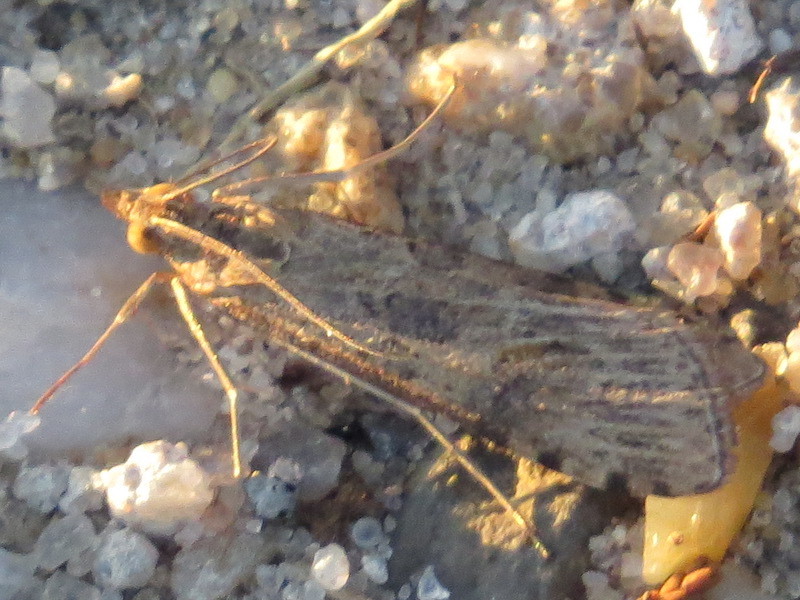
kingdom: Animalia
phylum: Arthropoda
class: Insecta
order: Lepidoptera
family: Crambidae
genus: Nomophila
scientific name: Nomophila nearctica
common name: American rush veneer
